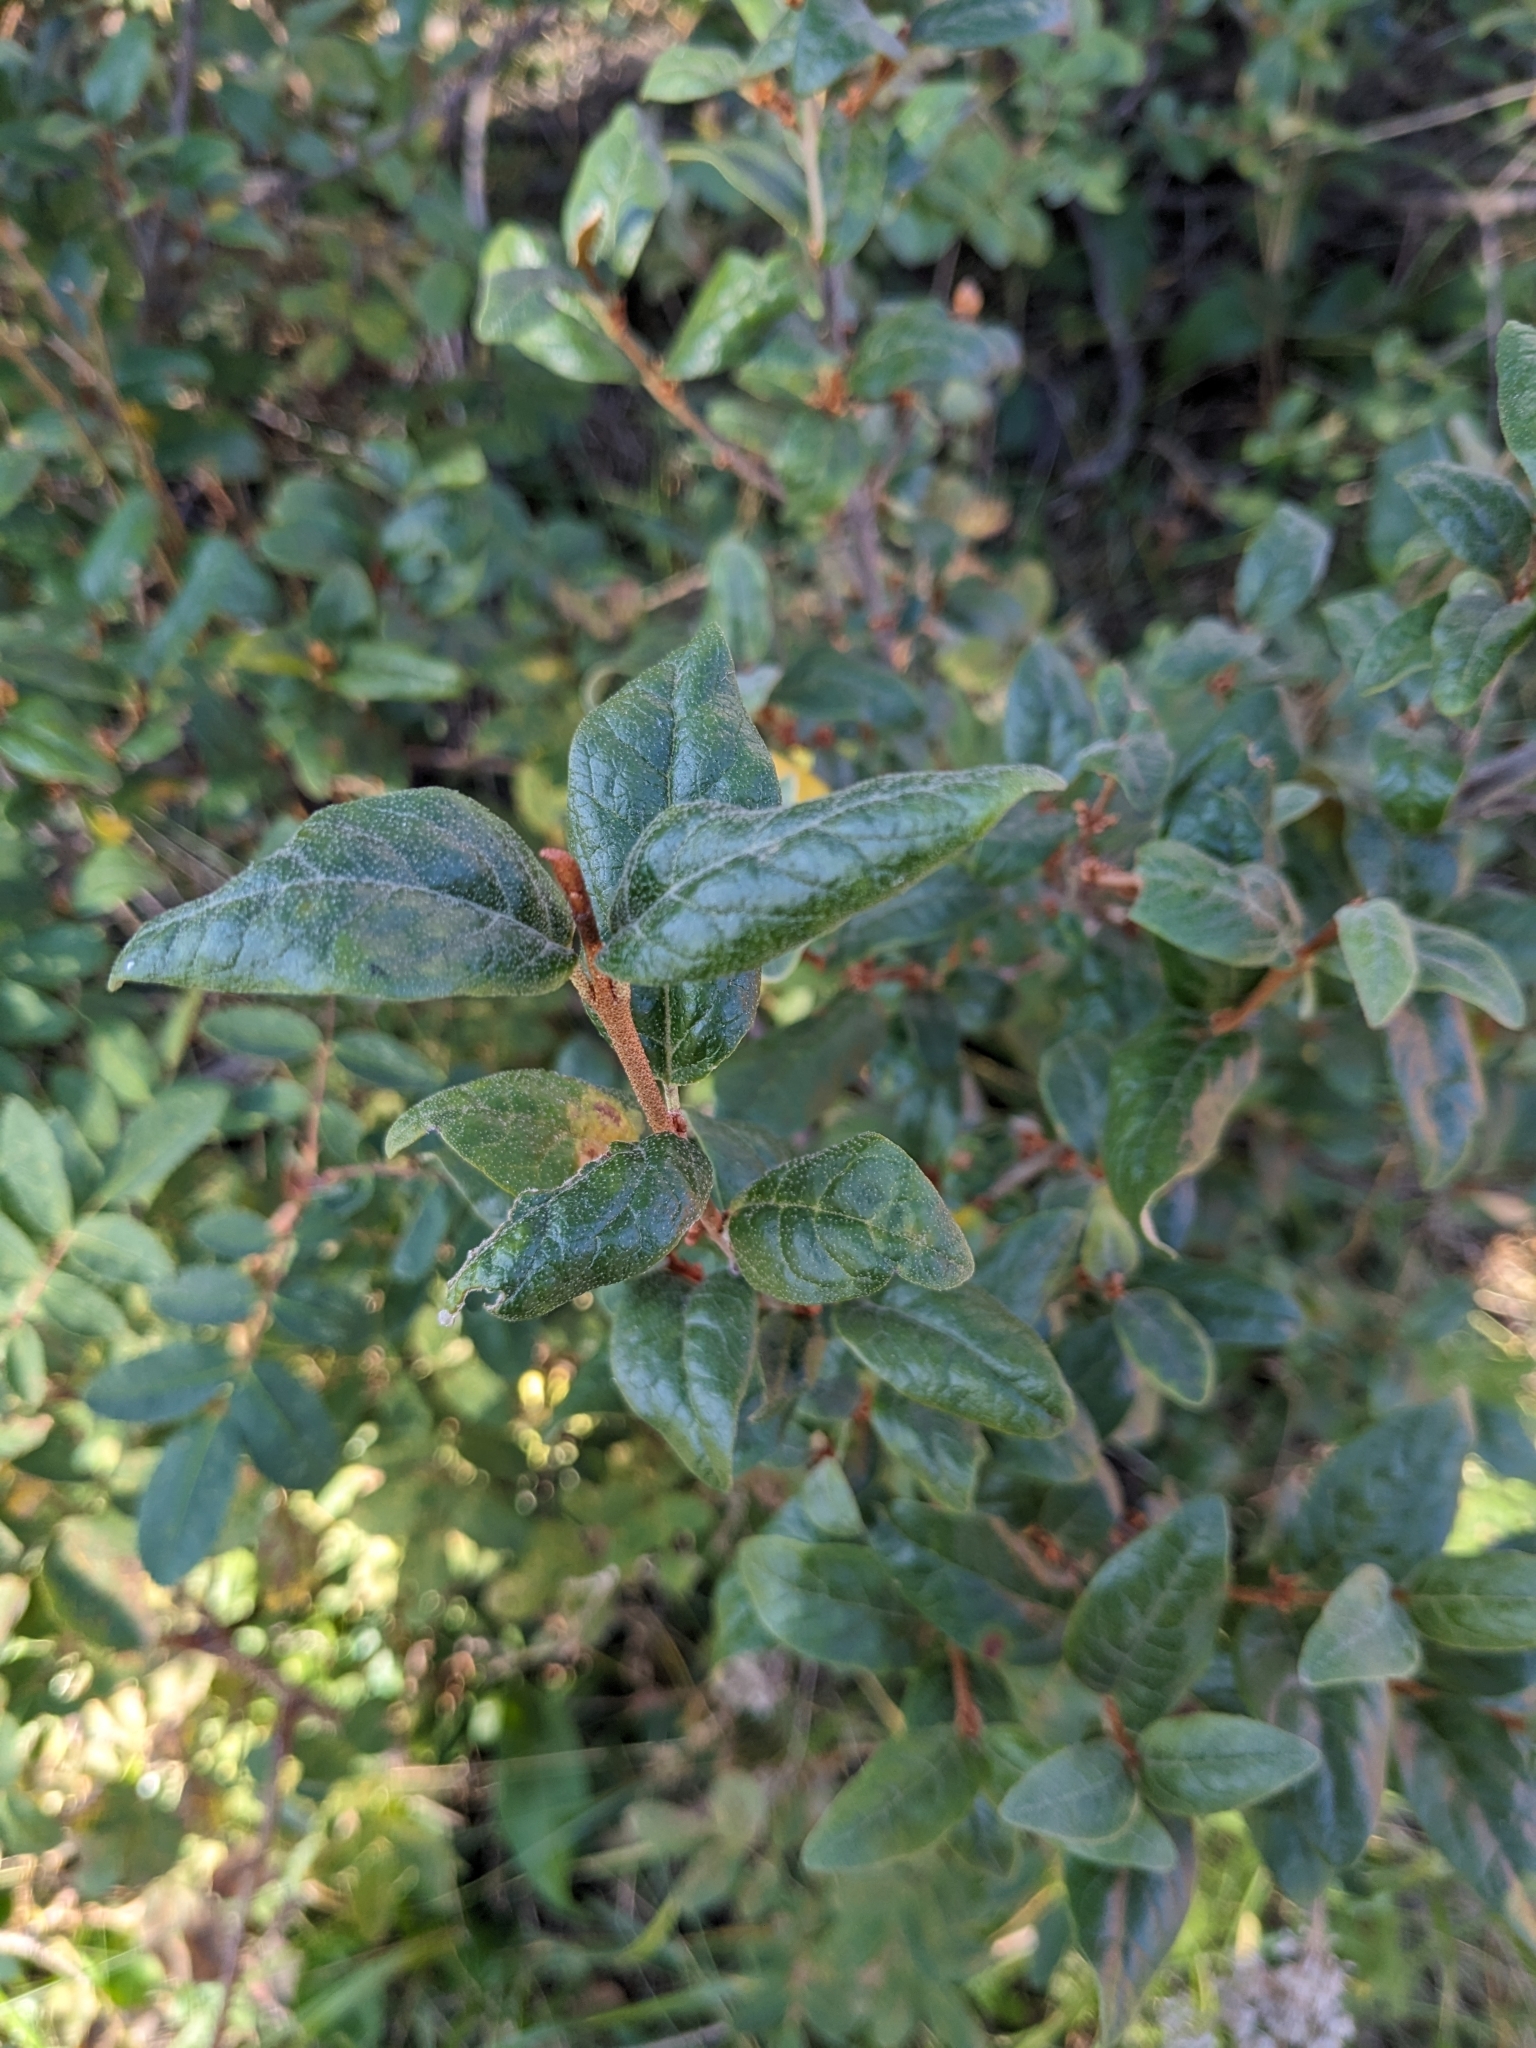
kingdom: Plantae
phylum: Tracheophyta
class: Magnoliopsida
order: Rosales
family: Elaeagnaceae
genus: Shepherdia
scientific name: Shepherdia canadensis
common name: Soapberry
